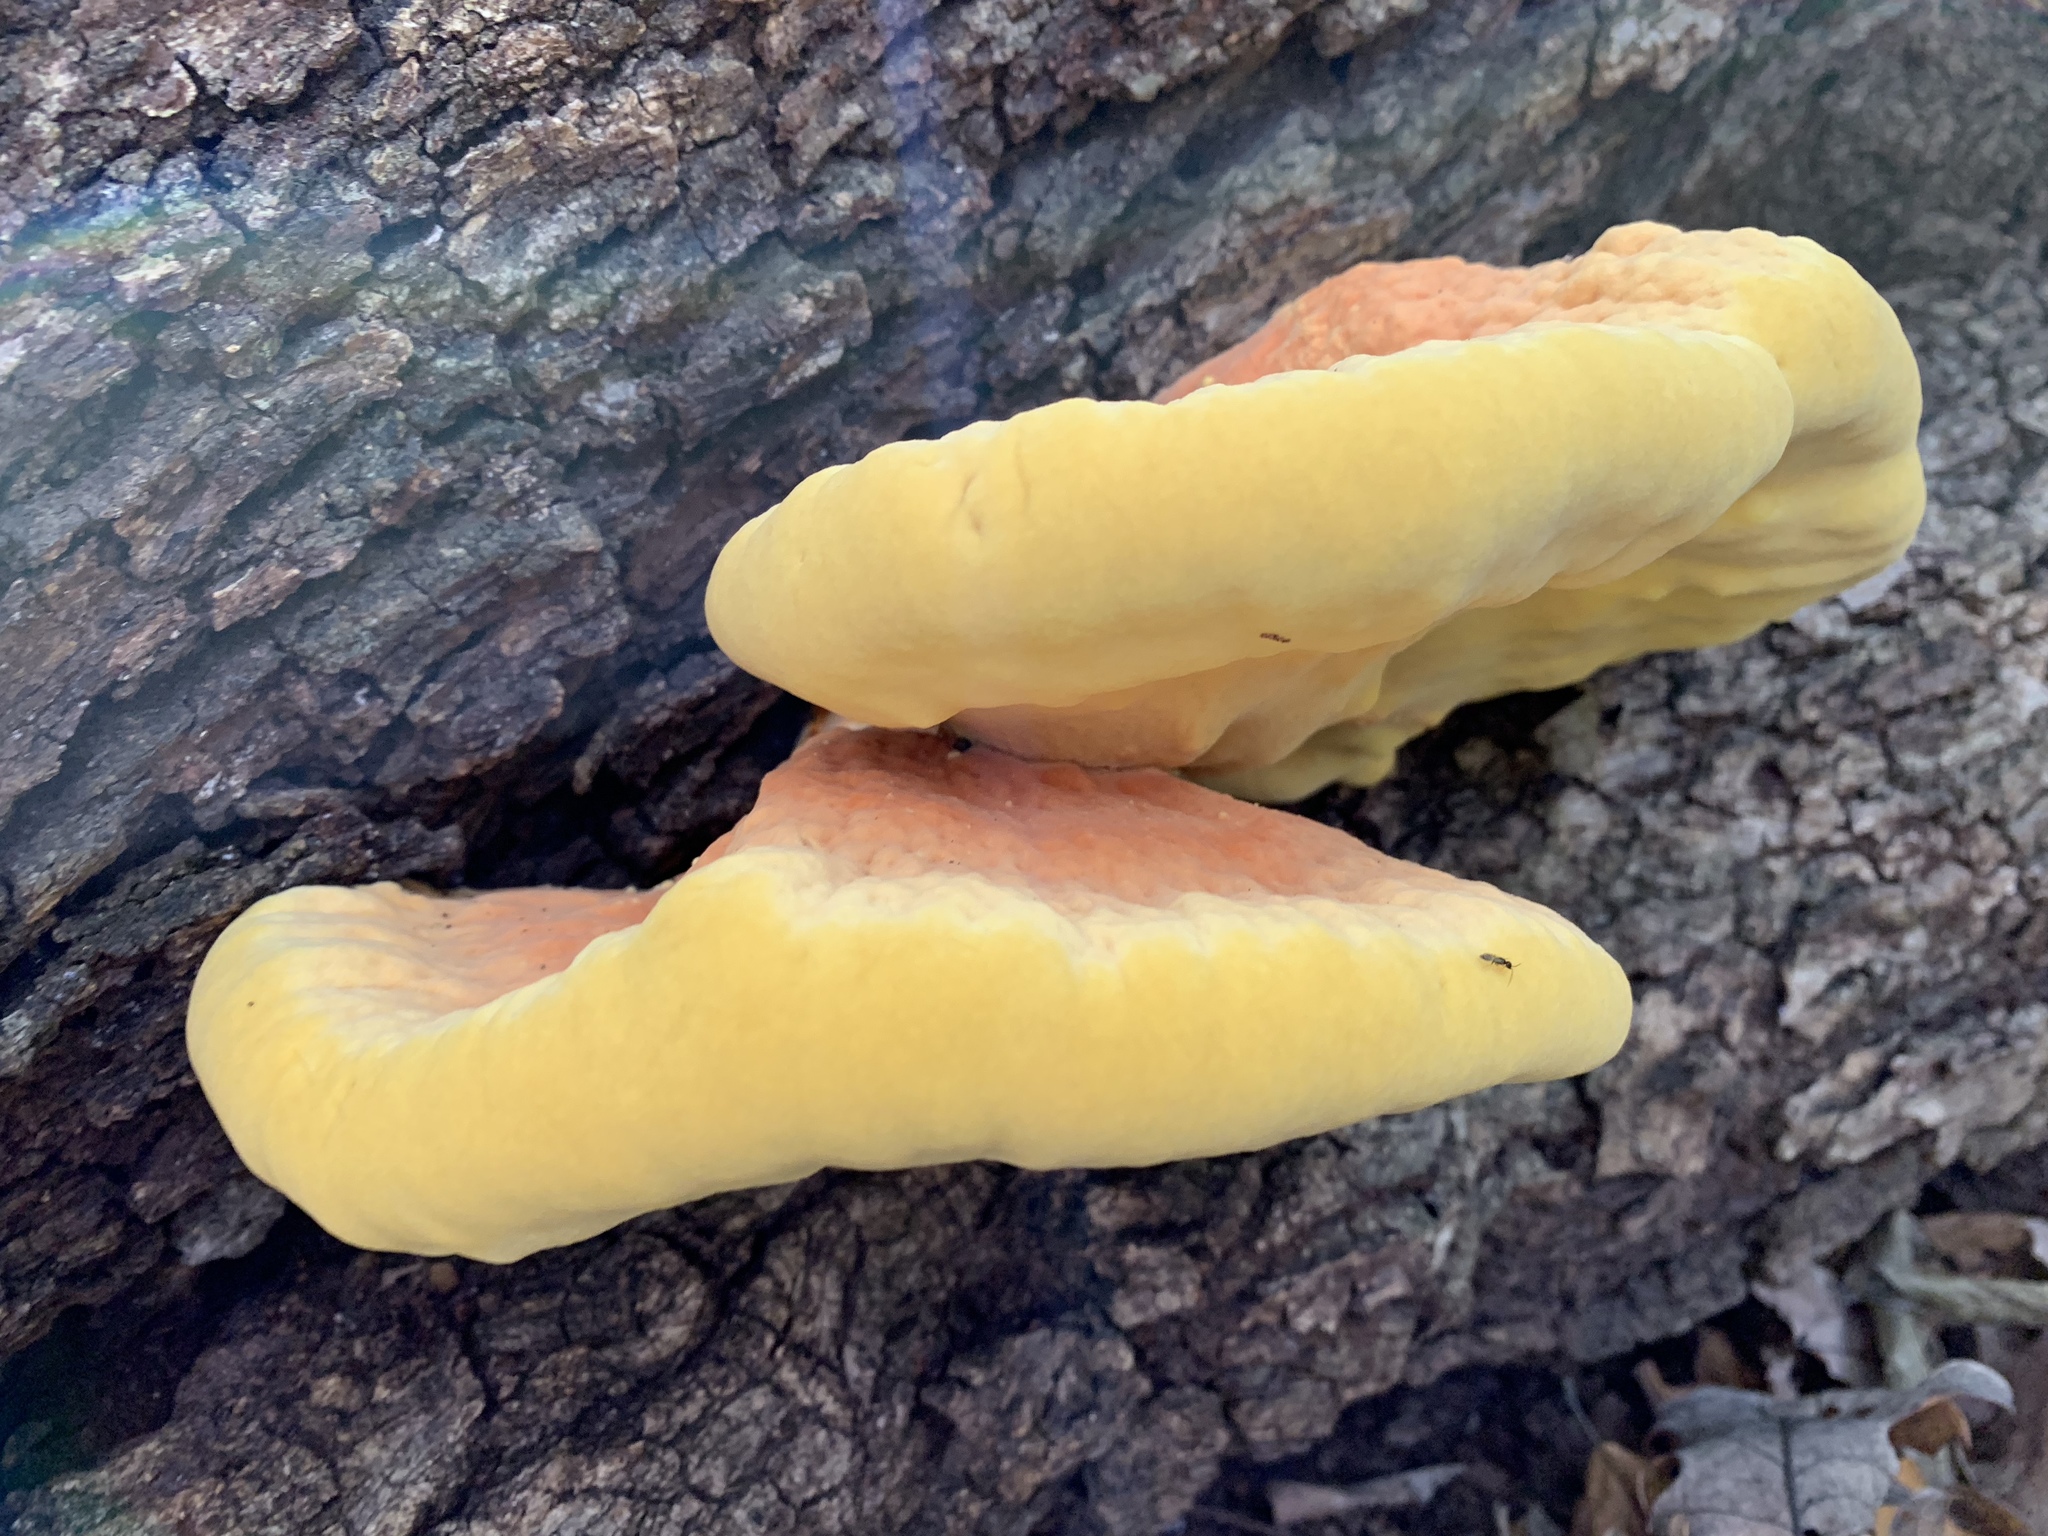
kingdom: Fungi
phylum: Basidiomycota
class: Agaricomycetes
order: Polyporales
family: Laetiporaceae
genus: Laetiporus
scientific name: Laetiporus gilbertsonii
